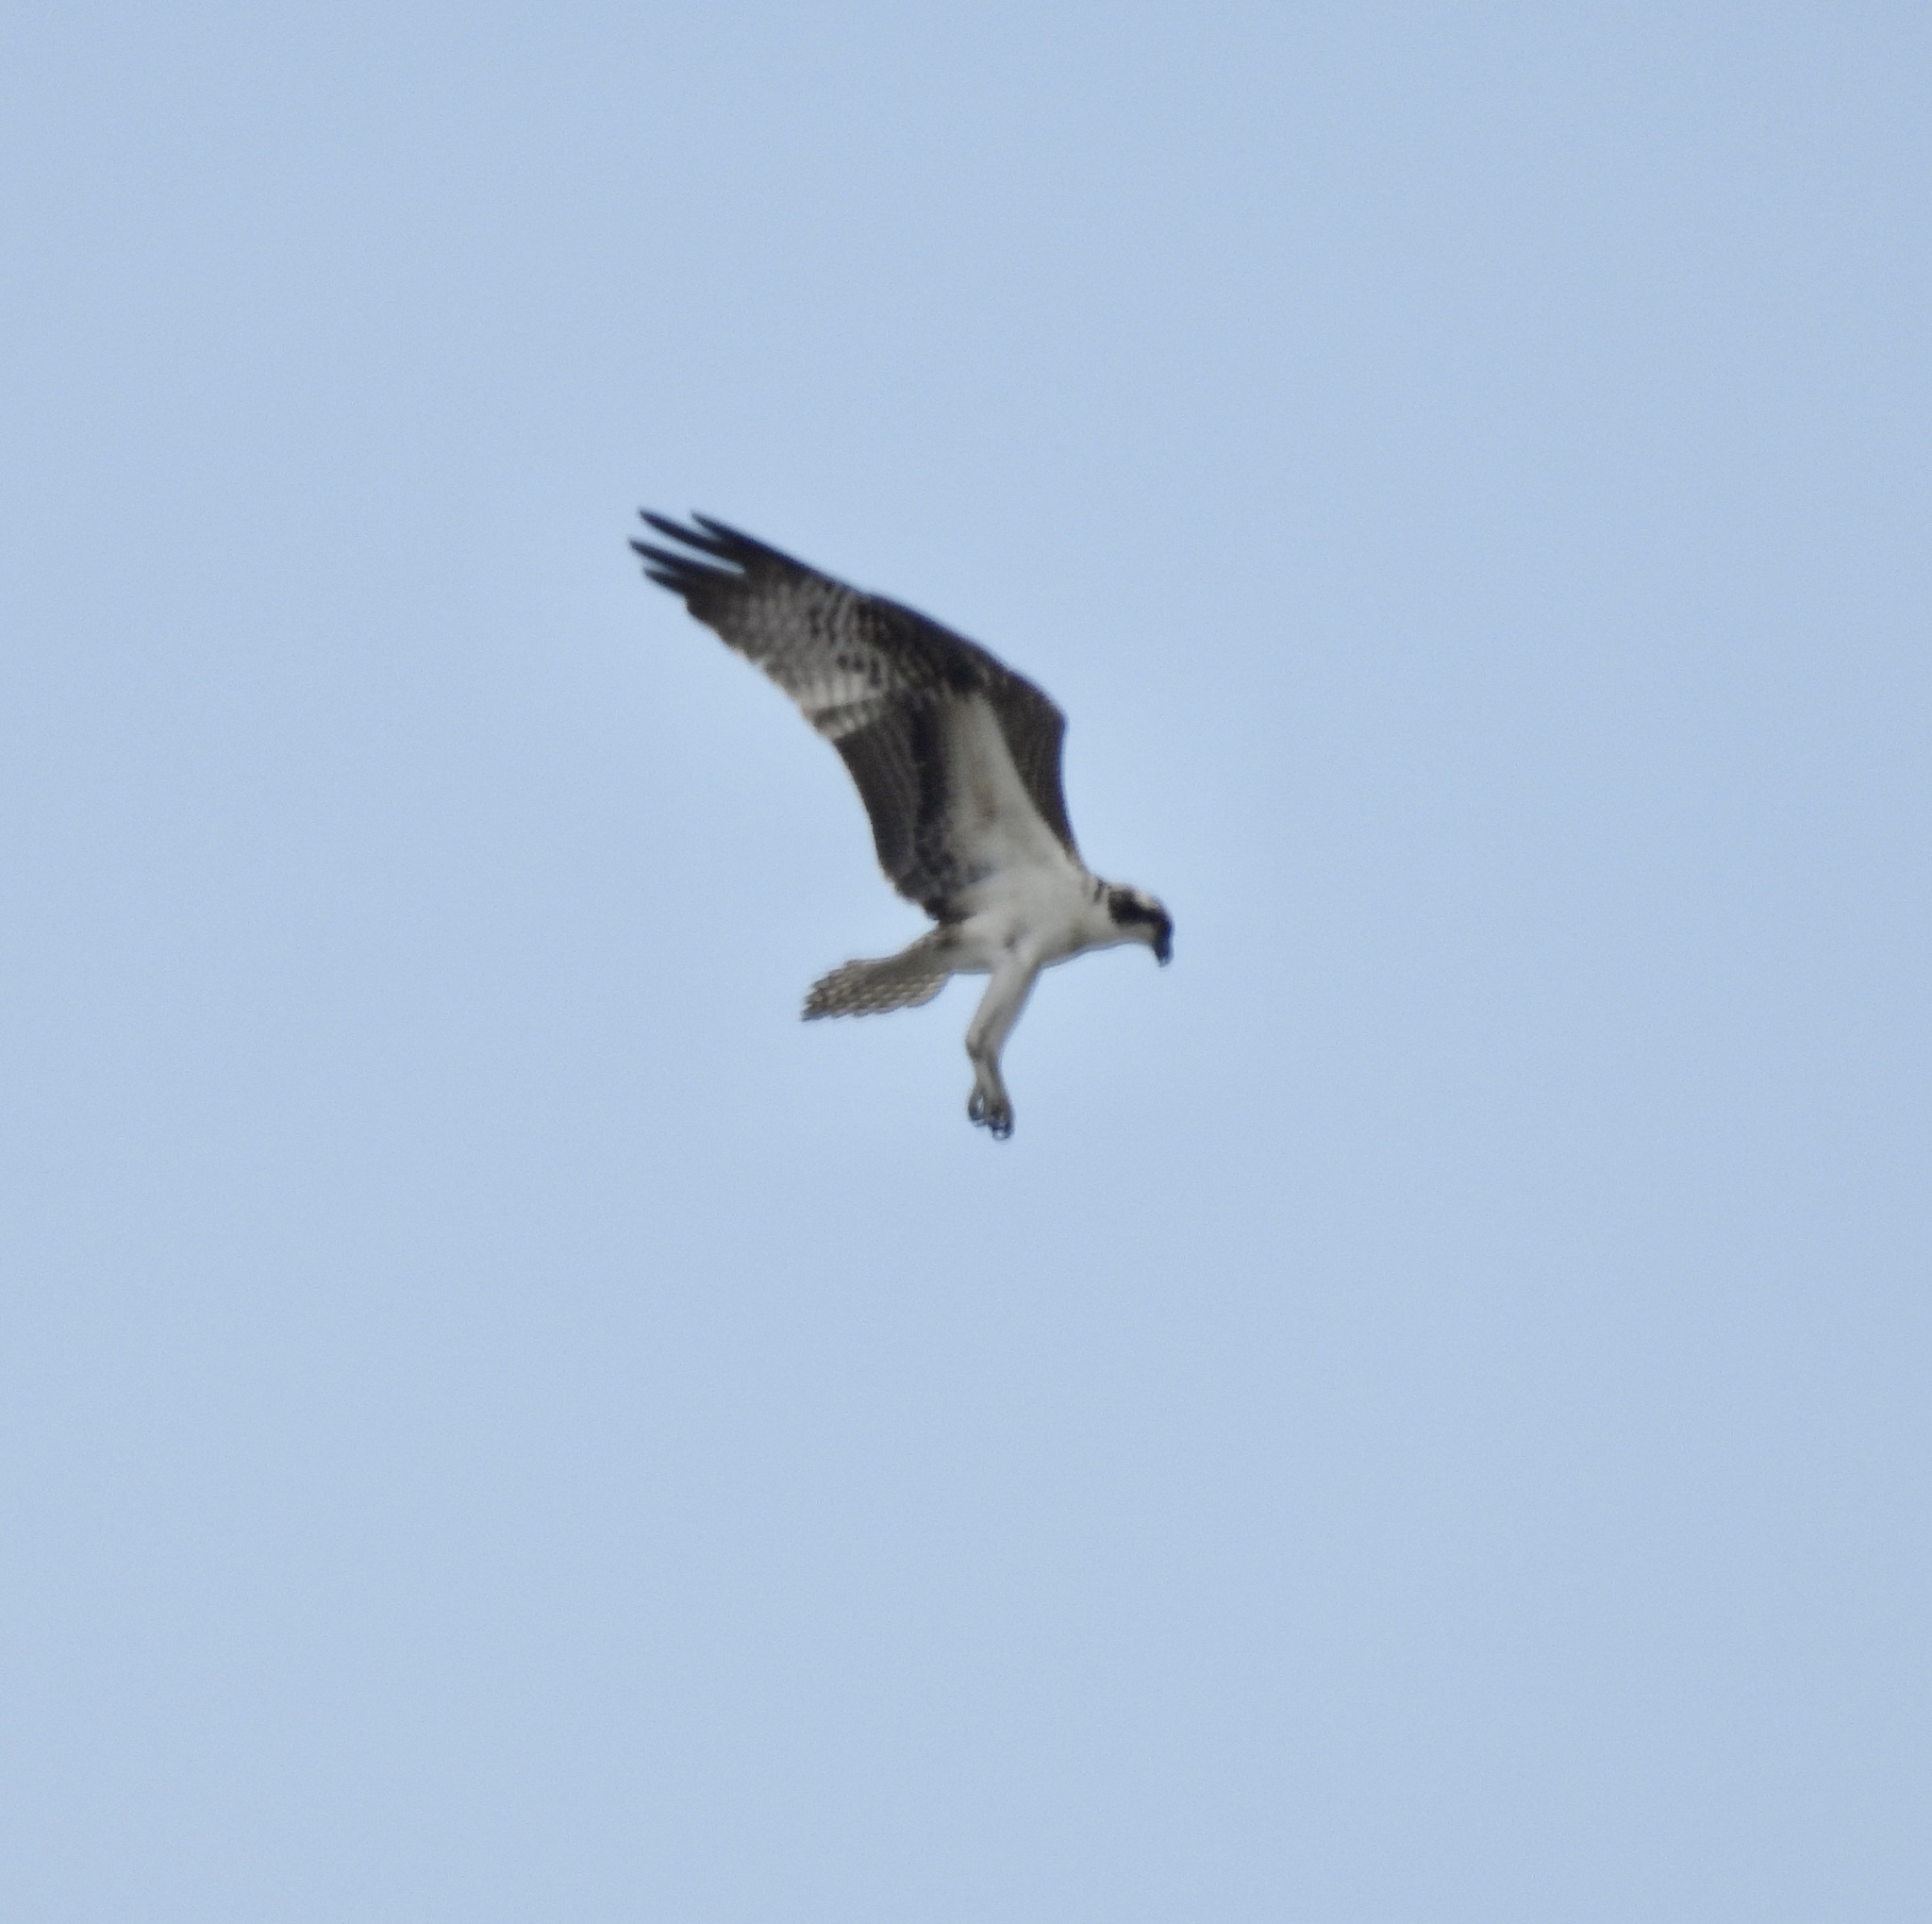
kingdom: Animalia
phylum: Chordata
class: Aves
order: Accipitriformes
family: Pandionidae
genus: Pandion
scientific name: Pandion haliaetus
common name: Osprey
